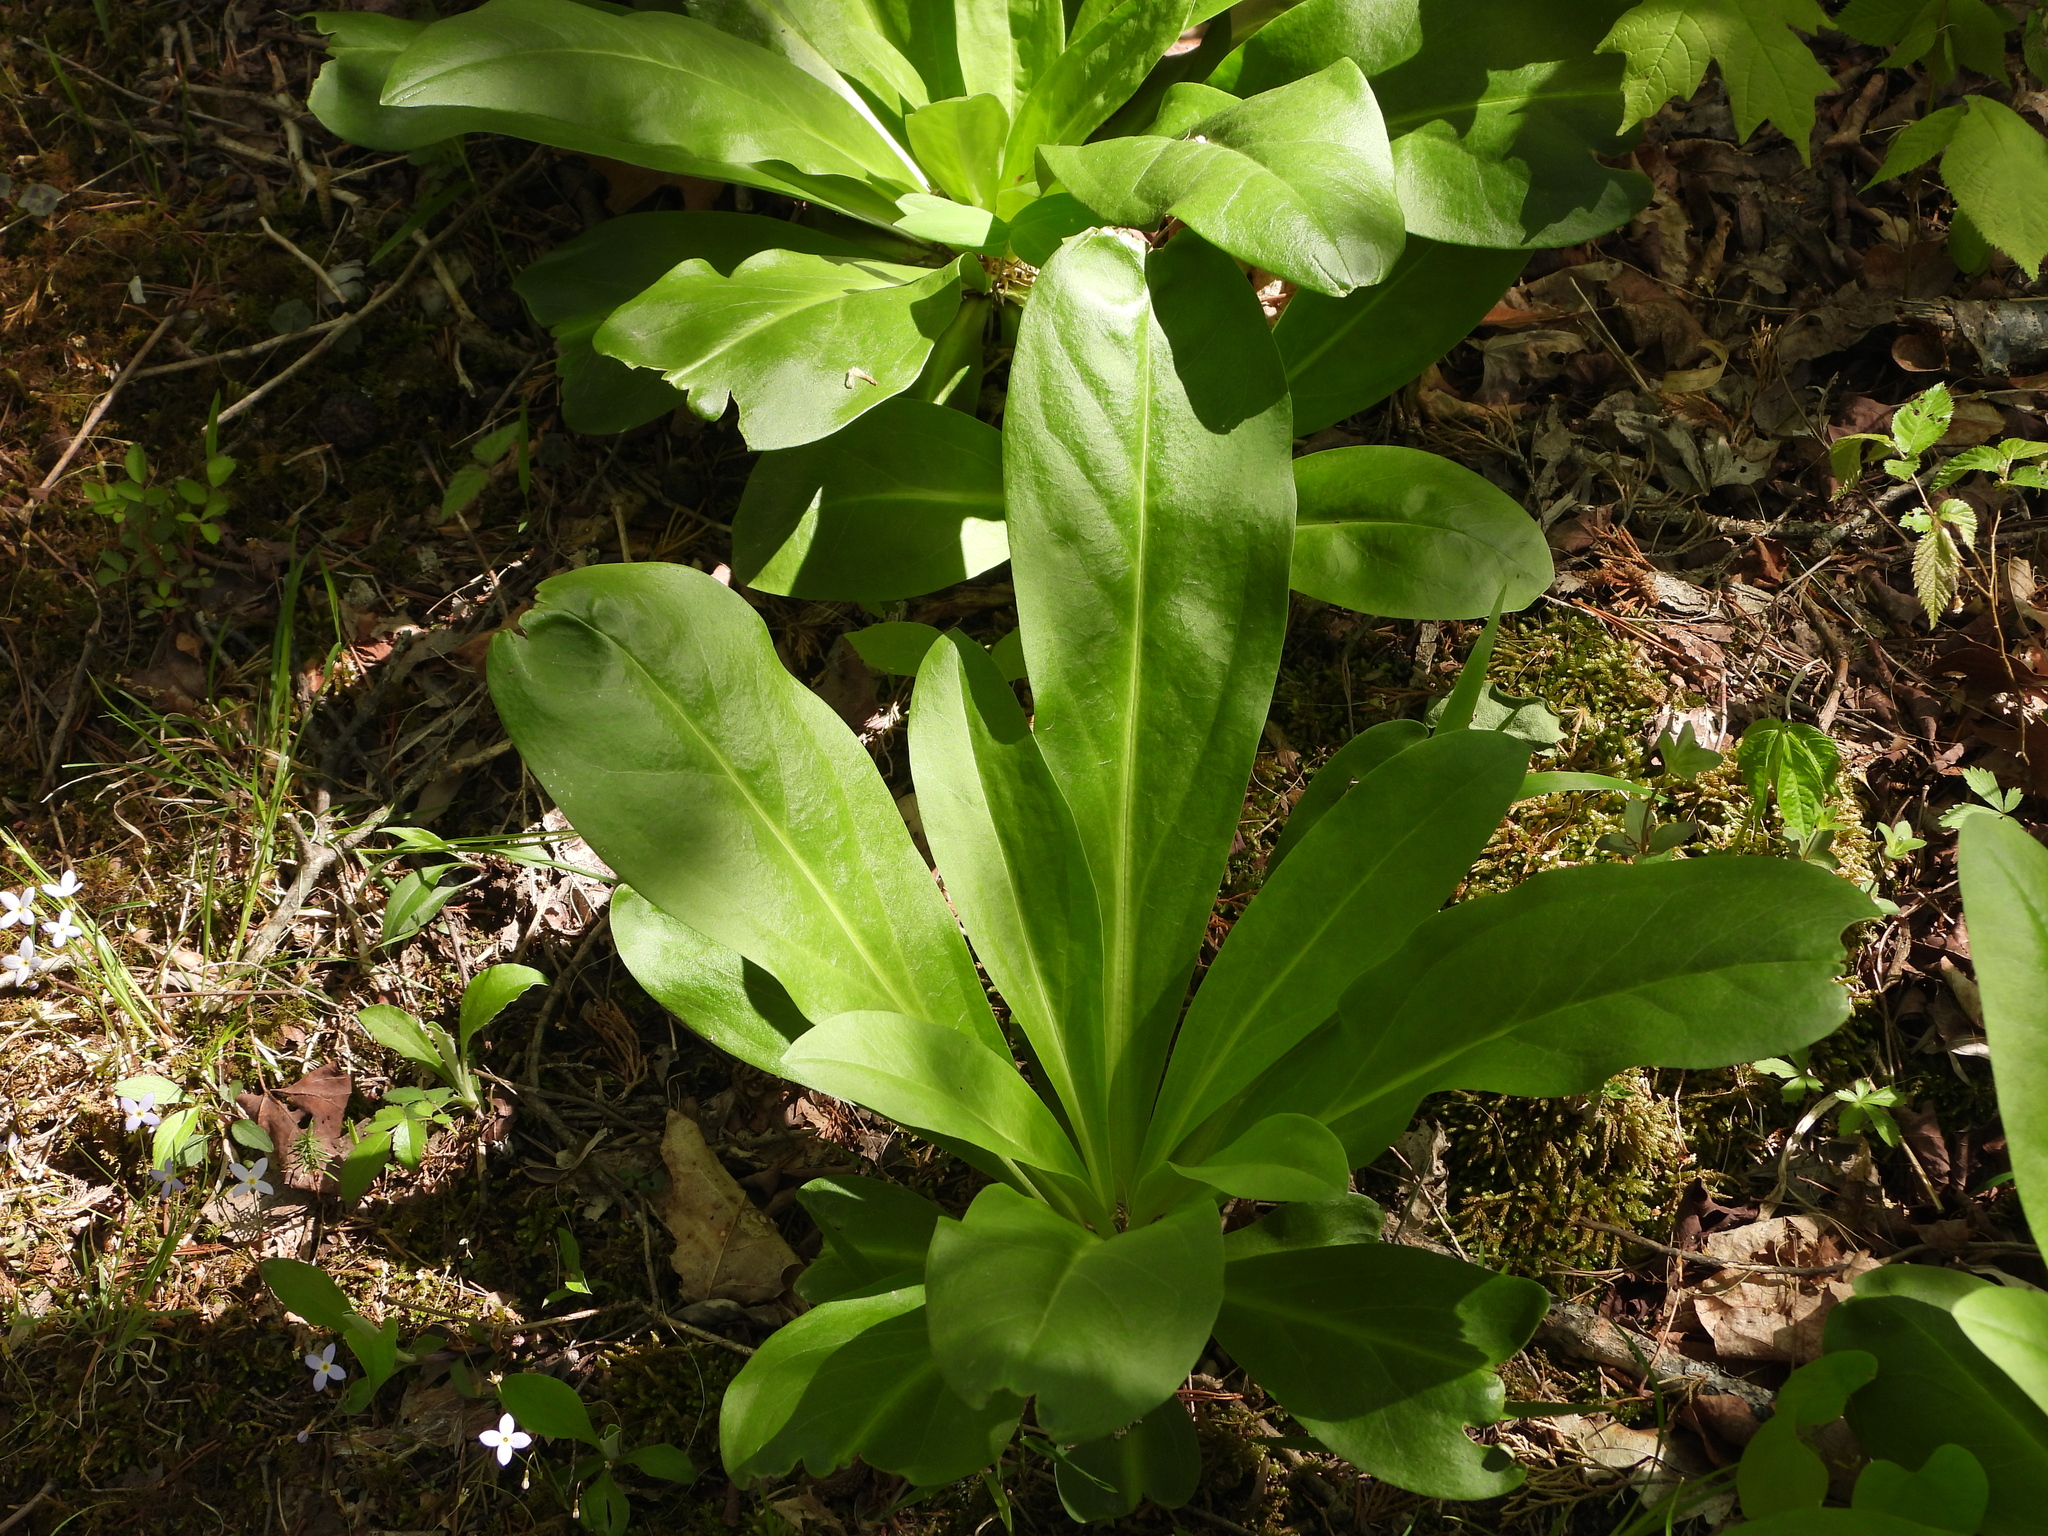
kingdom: Plantae
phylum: Tracheophyta
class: Magnoliopsida
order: Gentianales
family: Gentianaceae
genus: Frasera
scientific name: Frasera caroliniensis
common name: American columbo
